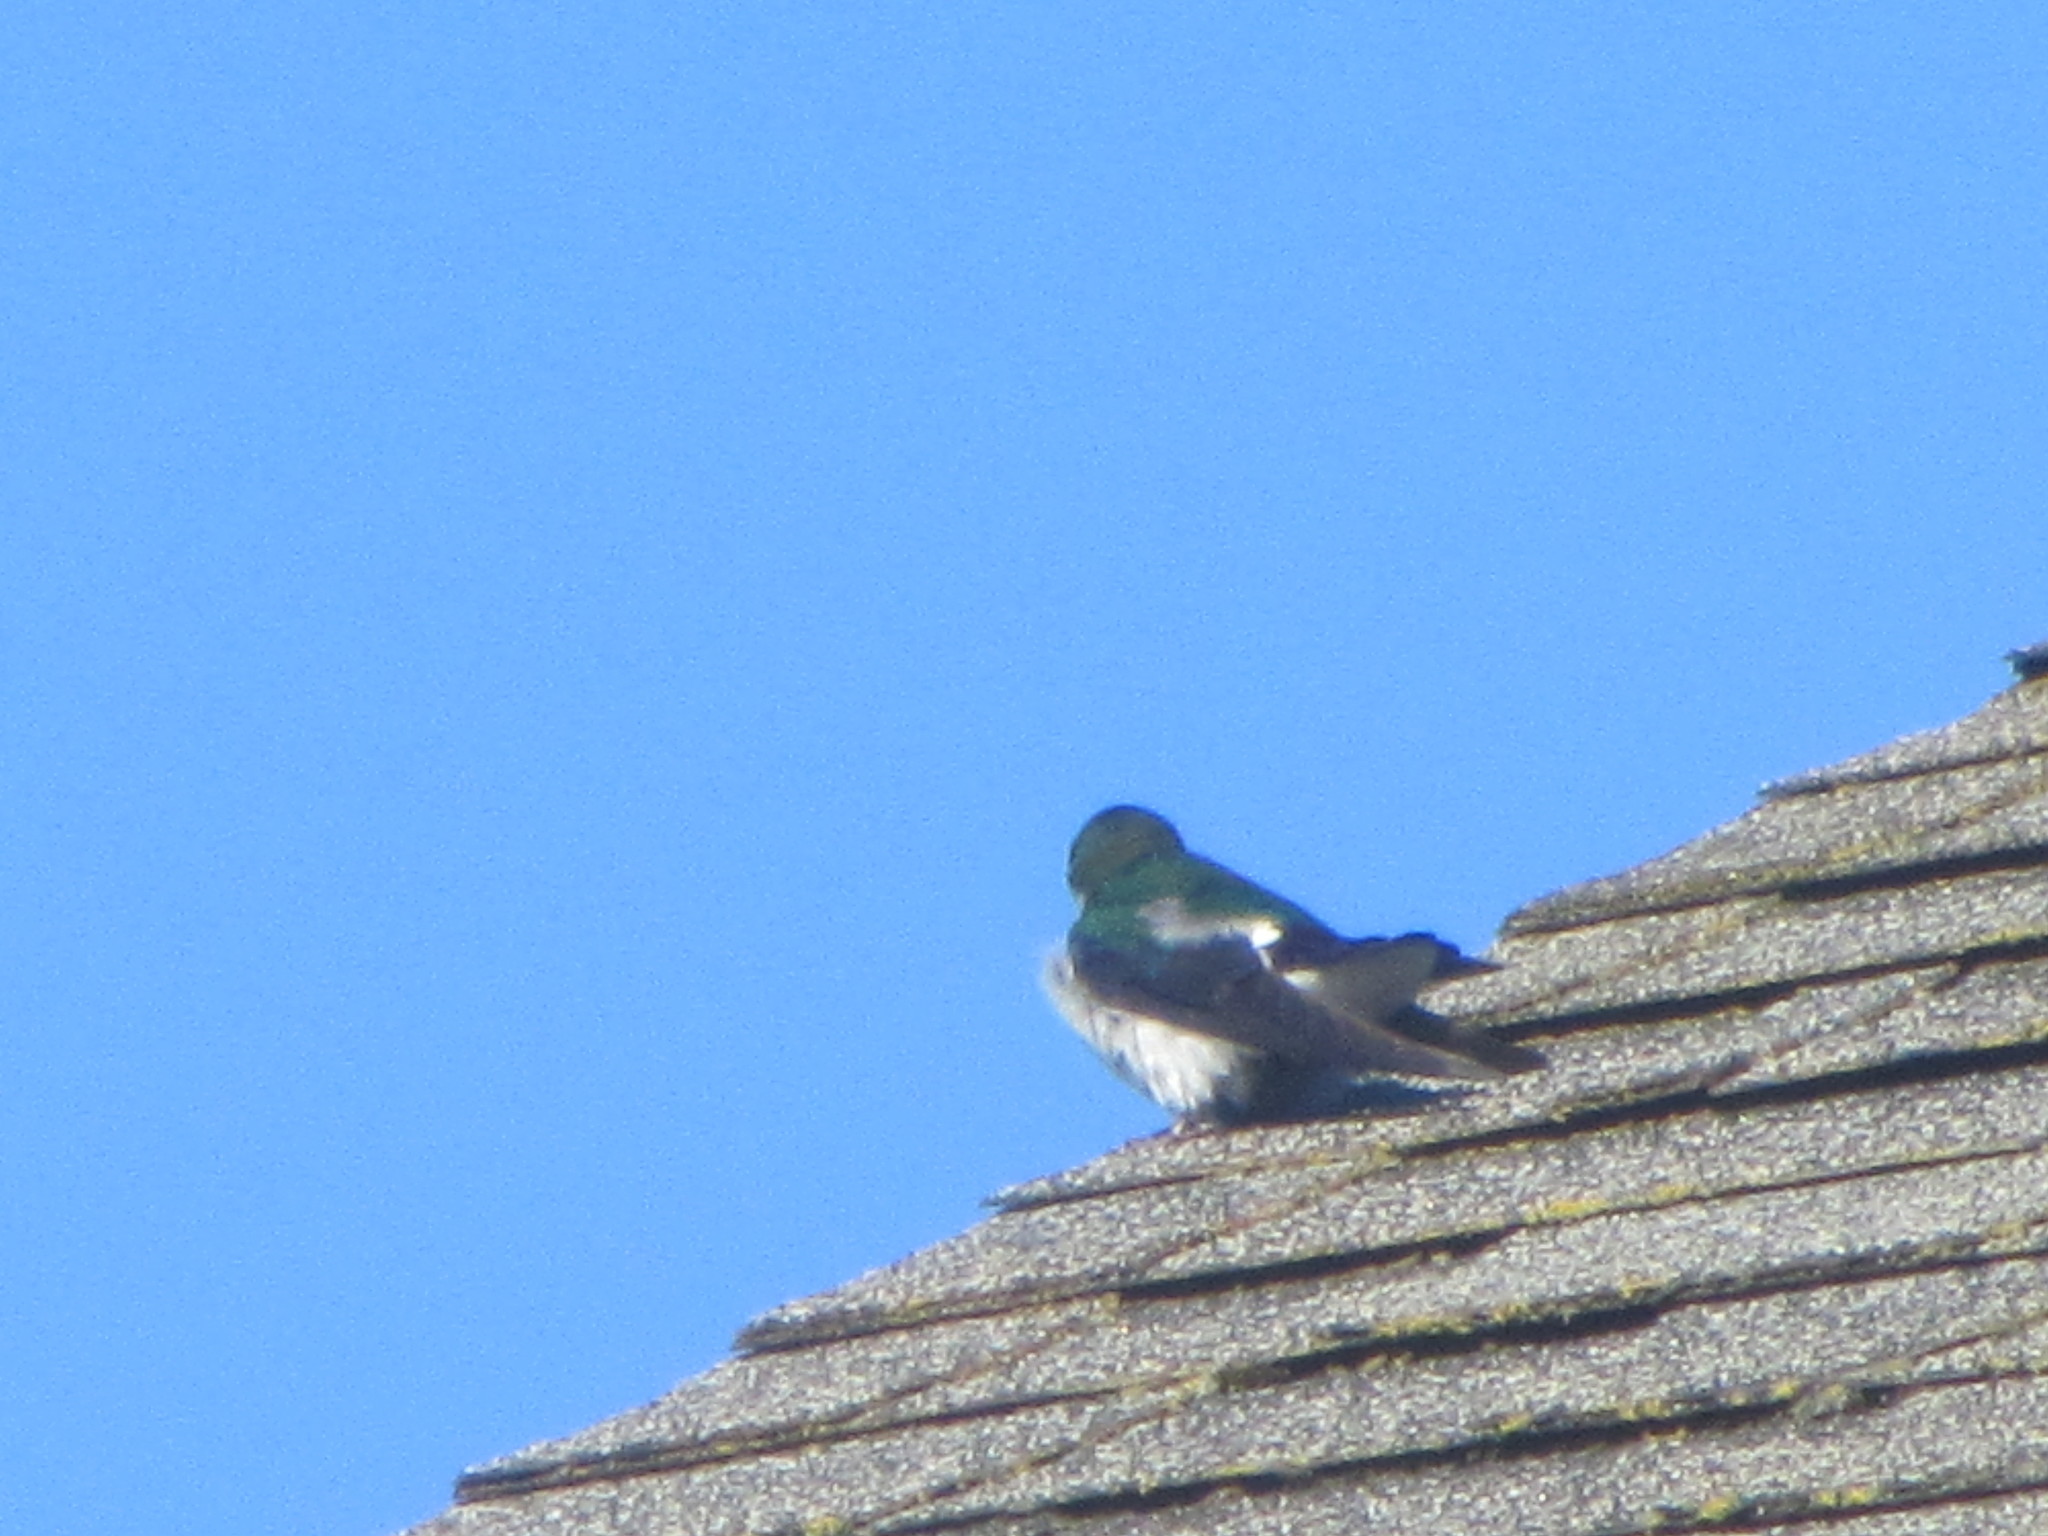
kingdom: Animalia
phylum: Chordata
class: Aves
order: Passeriformes
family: Hirundinidae
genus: Tachycineta
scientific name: Tachycineta thalassina
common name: Violet-green swallow
